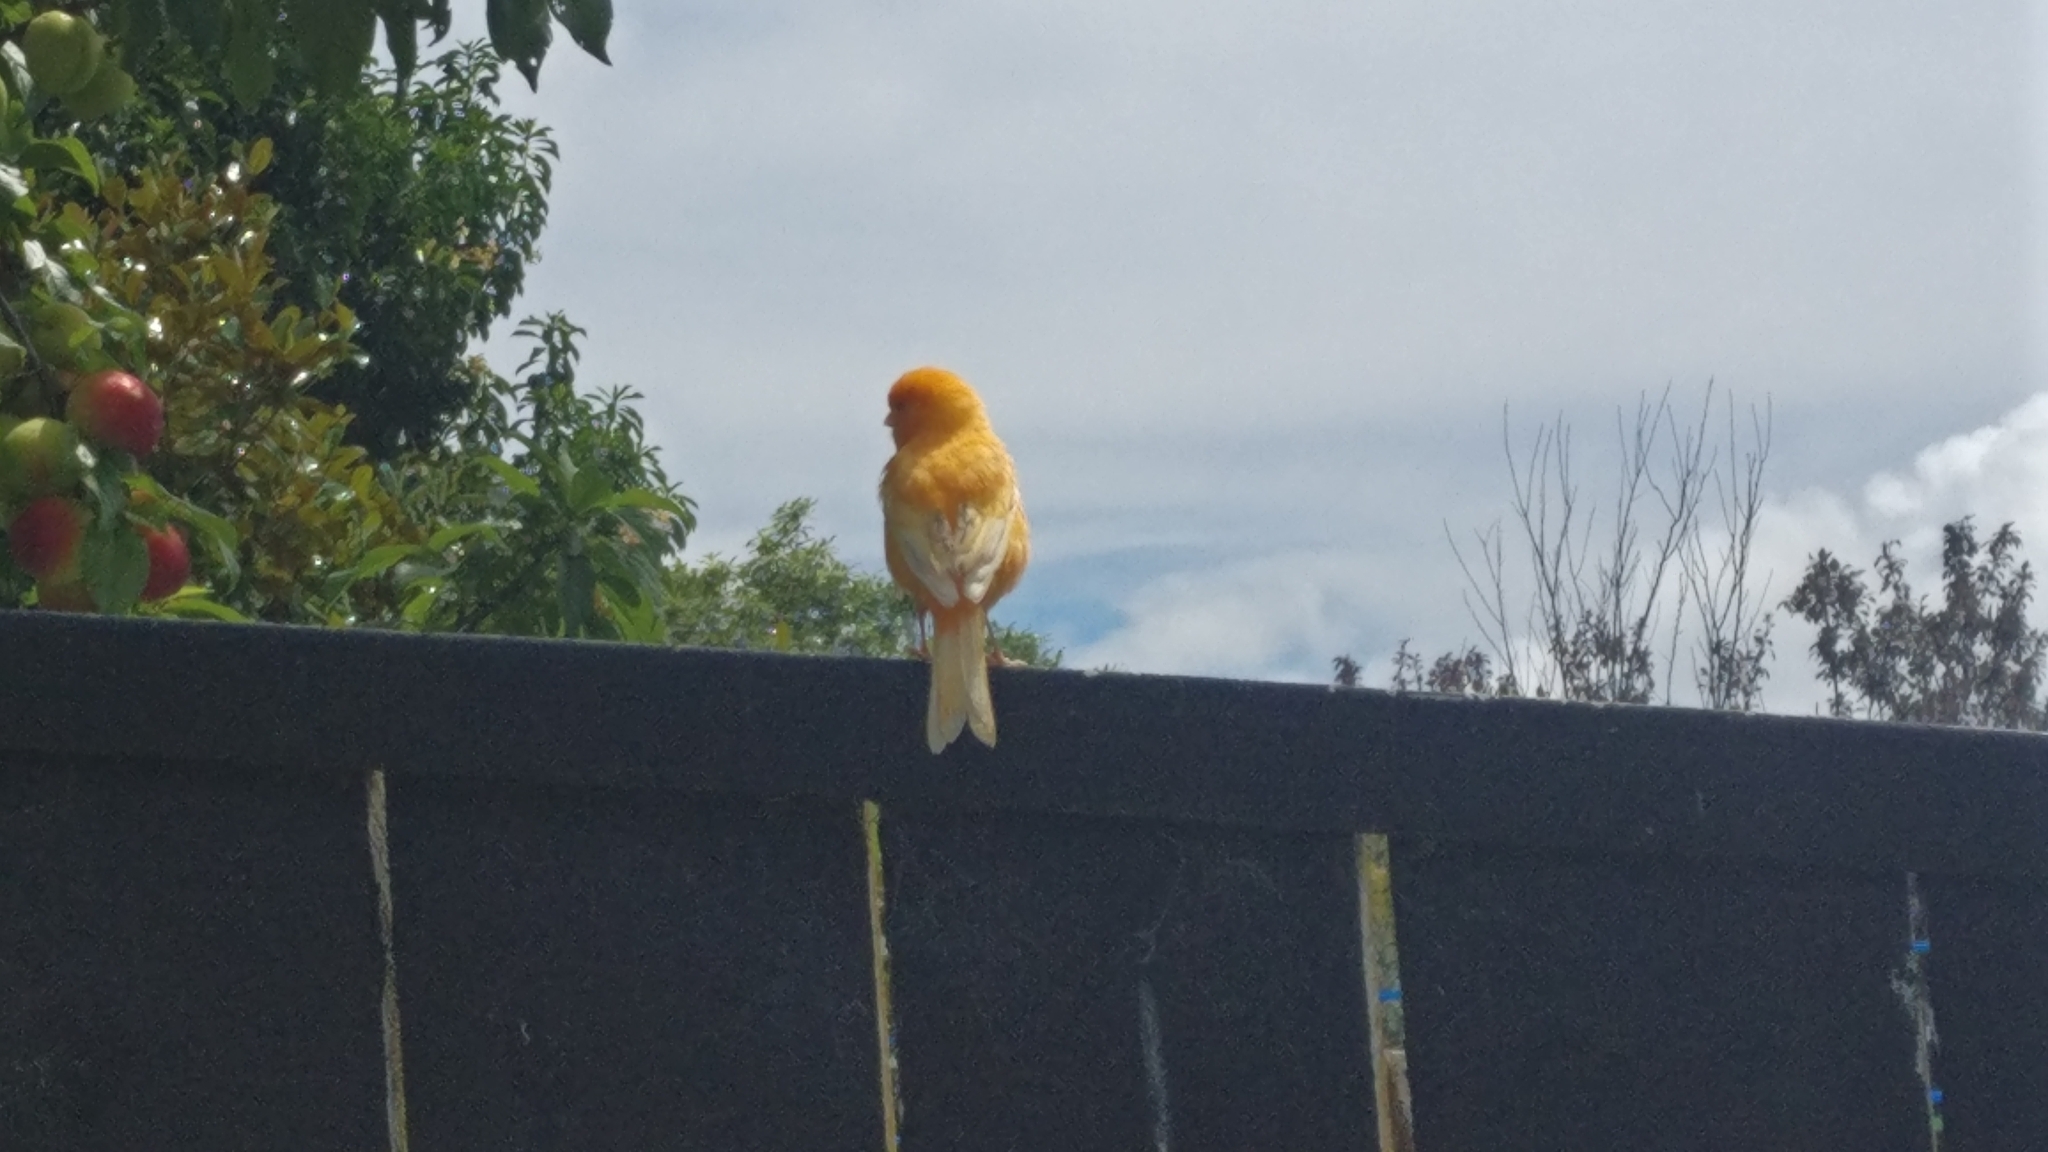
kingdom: Animalia
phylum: Chordata
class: Aves
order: Passeriformes
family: Fringillidae
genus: Serinus
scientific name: Serinus canaria
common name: Atlantic canary
